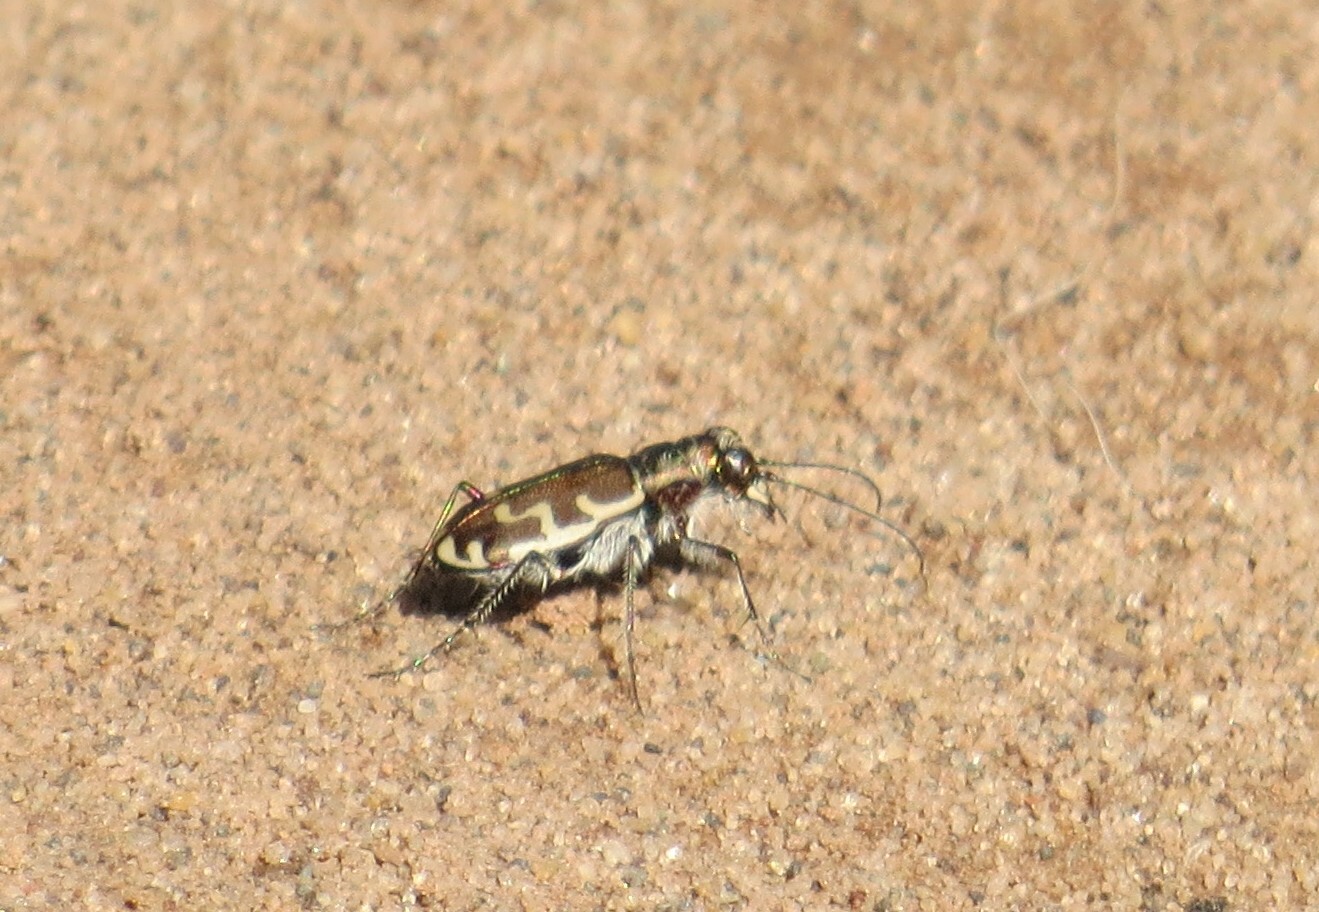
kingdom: Animalia
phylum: Arthropoda
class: Insecta
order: Coleoptera
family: Carabidae
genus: Cicindela
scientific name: Cicindela repanda
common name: Bronzed tiger beetle
